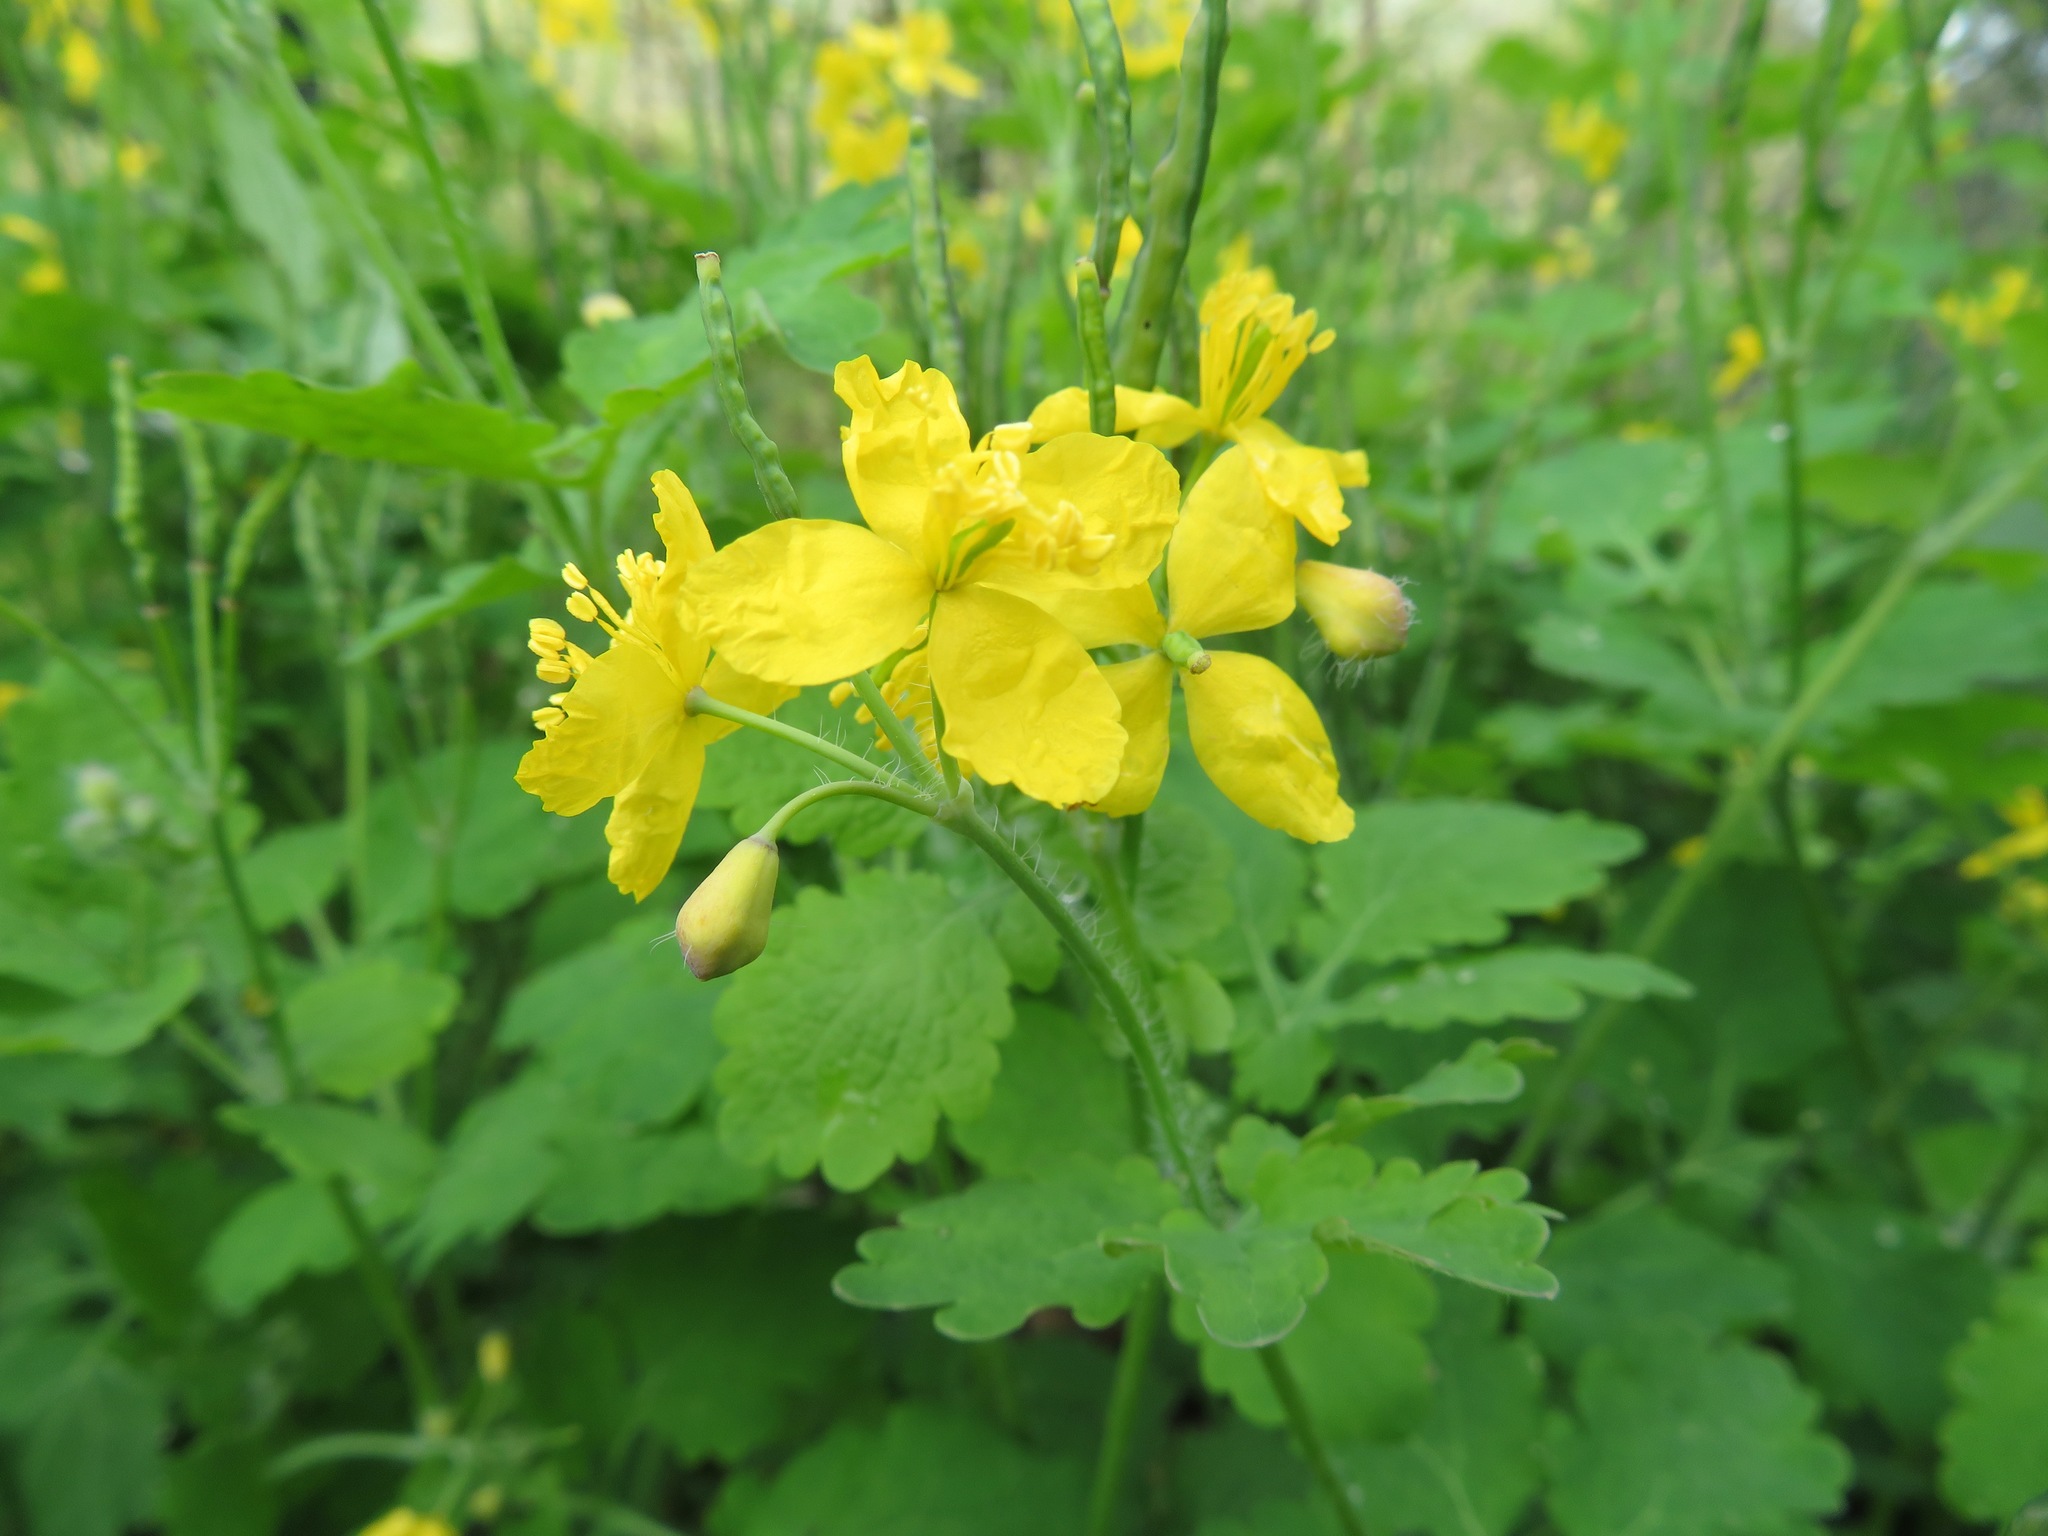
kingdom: Plantae
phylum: Tracheophyta
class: Magnoliopsida
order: Ranunculales
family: Papaveraceae
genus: Chelidonium
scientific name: Chelidonium majus
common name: Greater celandine
